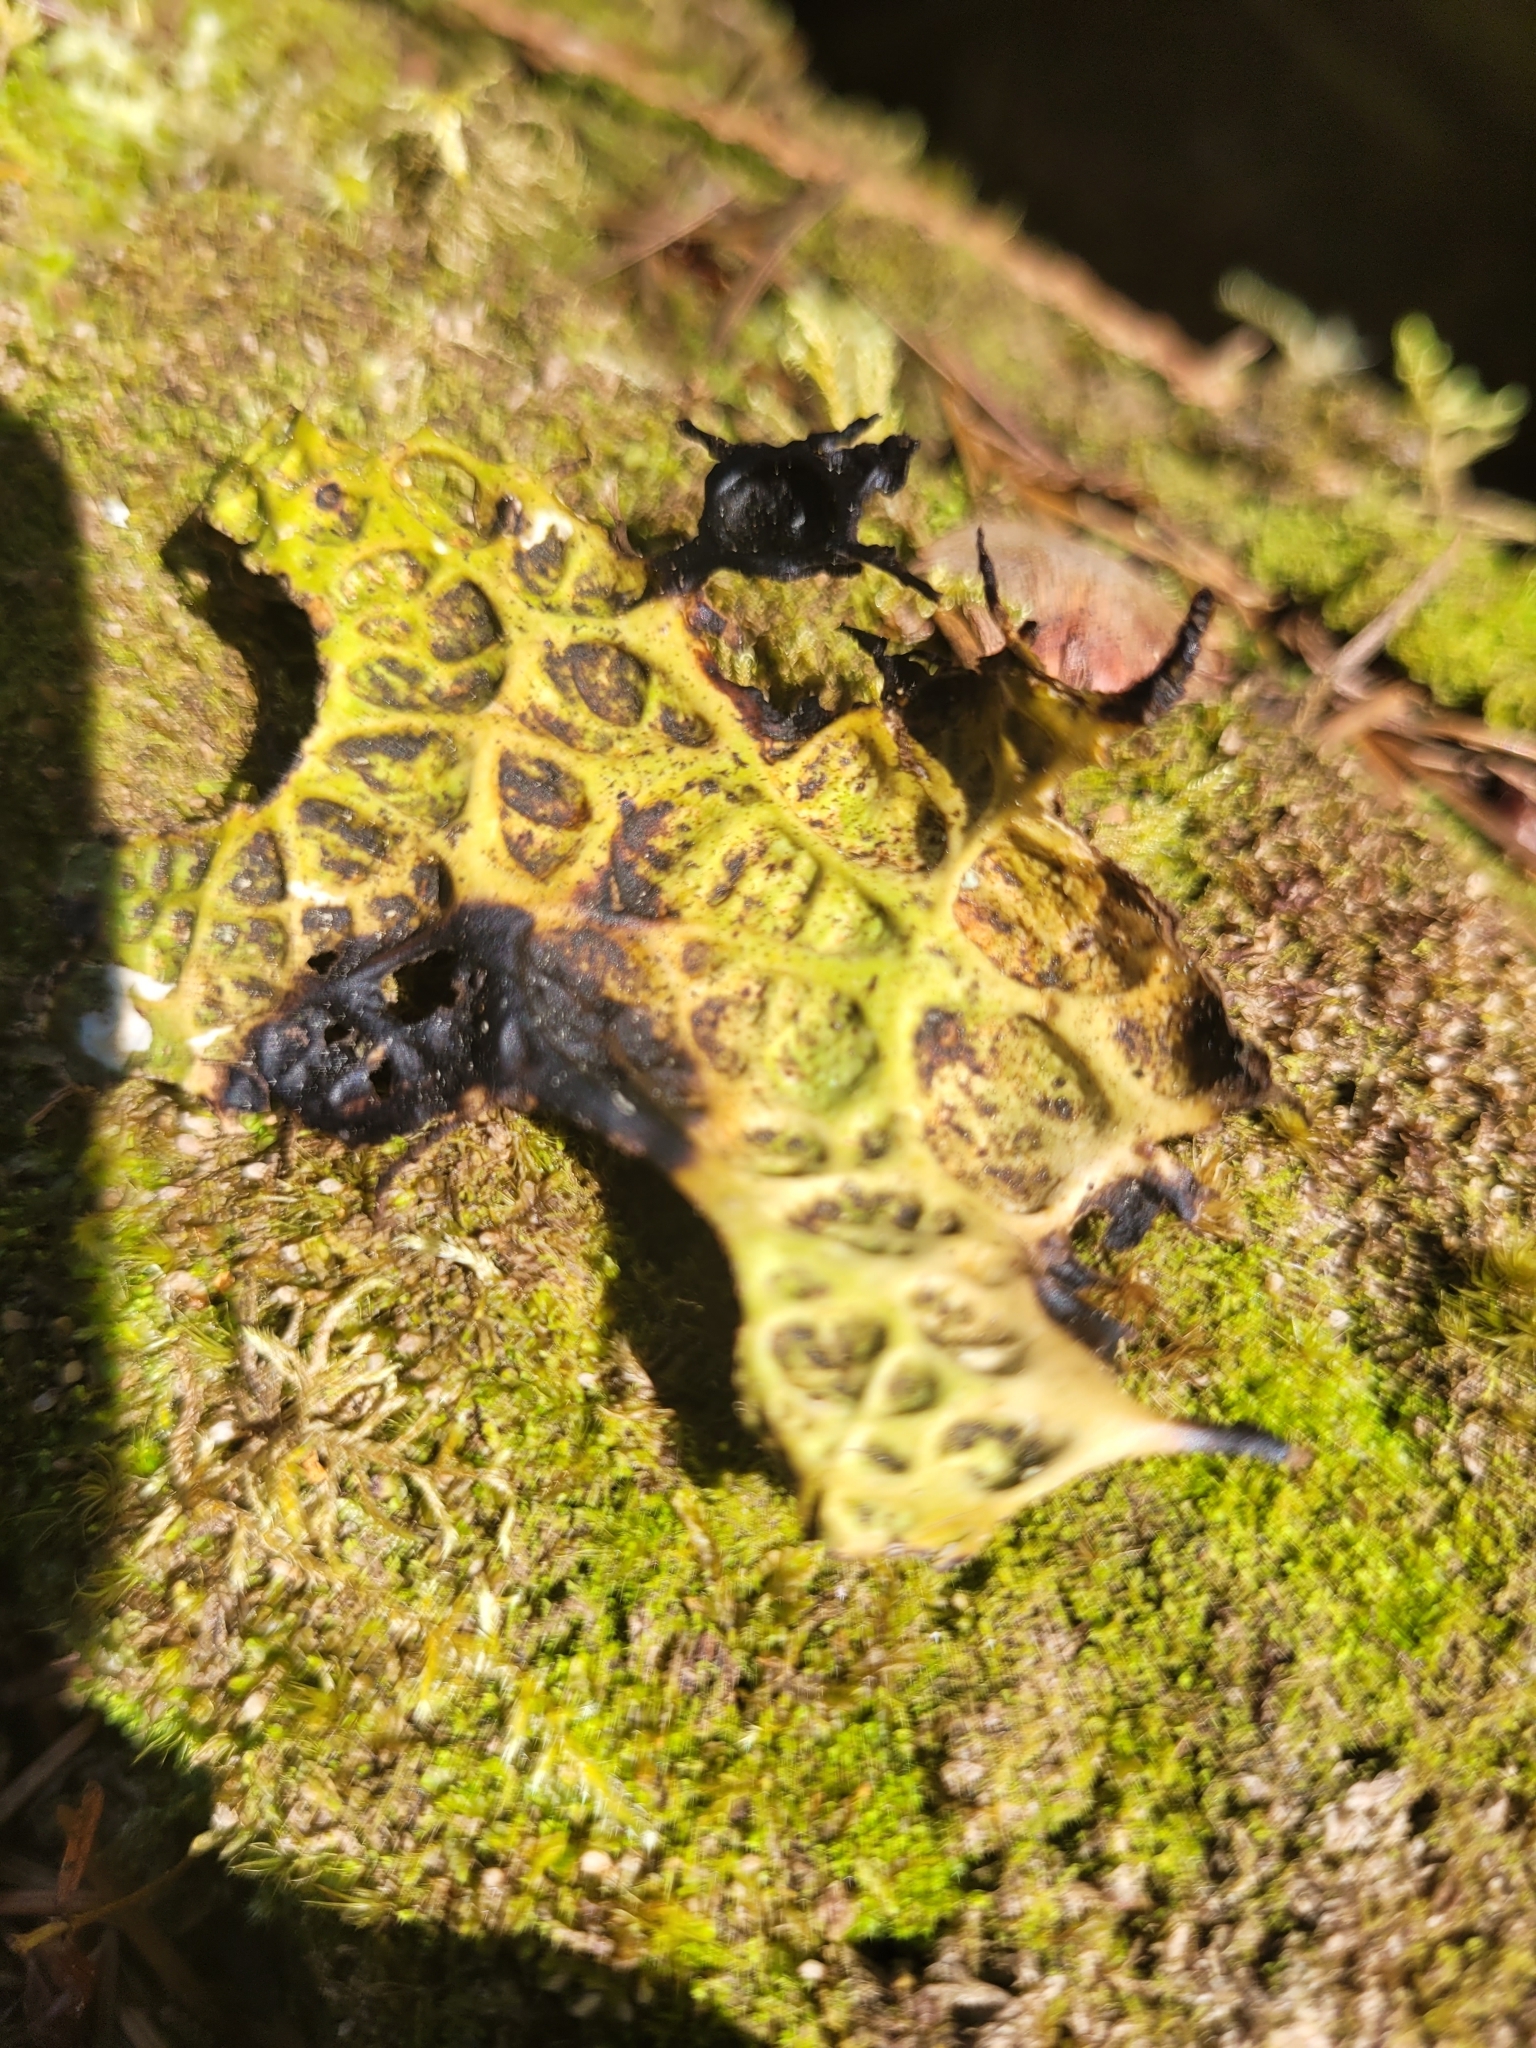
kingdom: Fungi
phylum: Ascomycota
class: Lecanoromycetes
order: Peltigerales
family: Lobariaceae
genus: Lobaria
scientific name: Lobaria pulmonaria
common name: Lungwort
